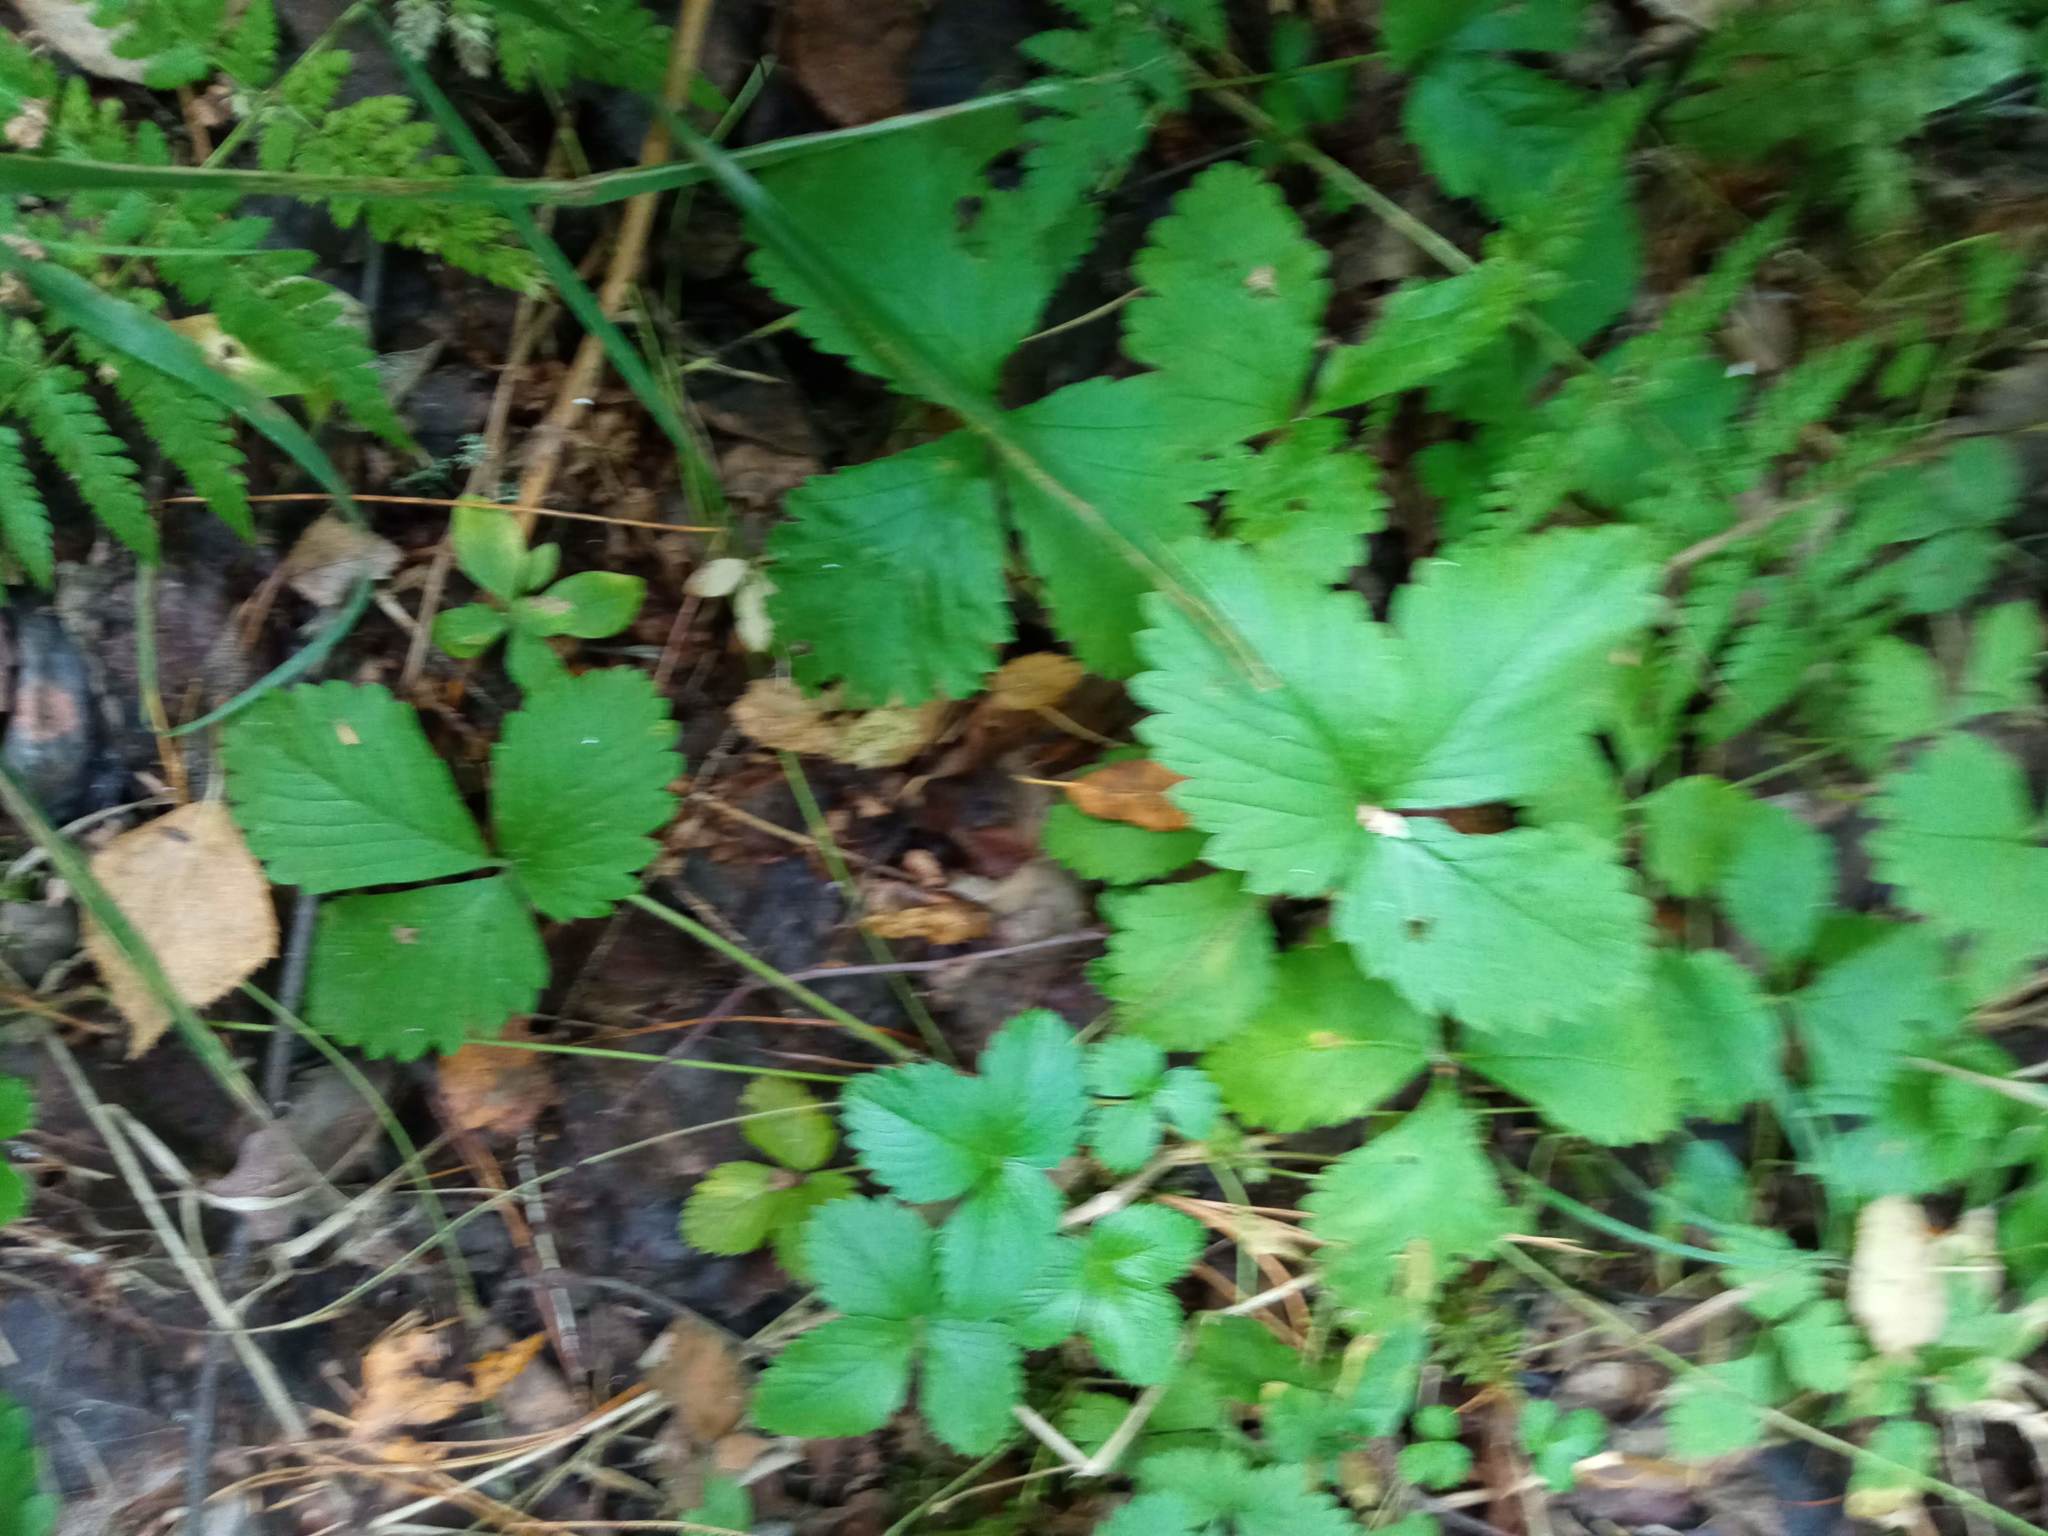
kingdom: Plantae
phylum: Tracheophyta
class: Magnoliopsida
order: Rosales
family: Rosaceae
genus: Fragaria
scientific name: Fragaria vesca
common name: Wild strawberry
